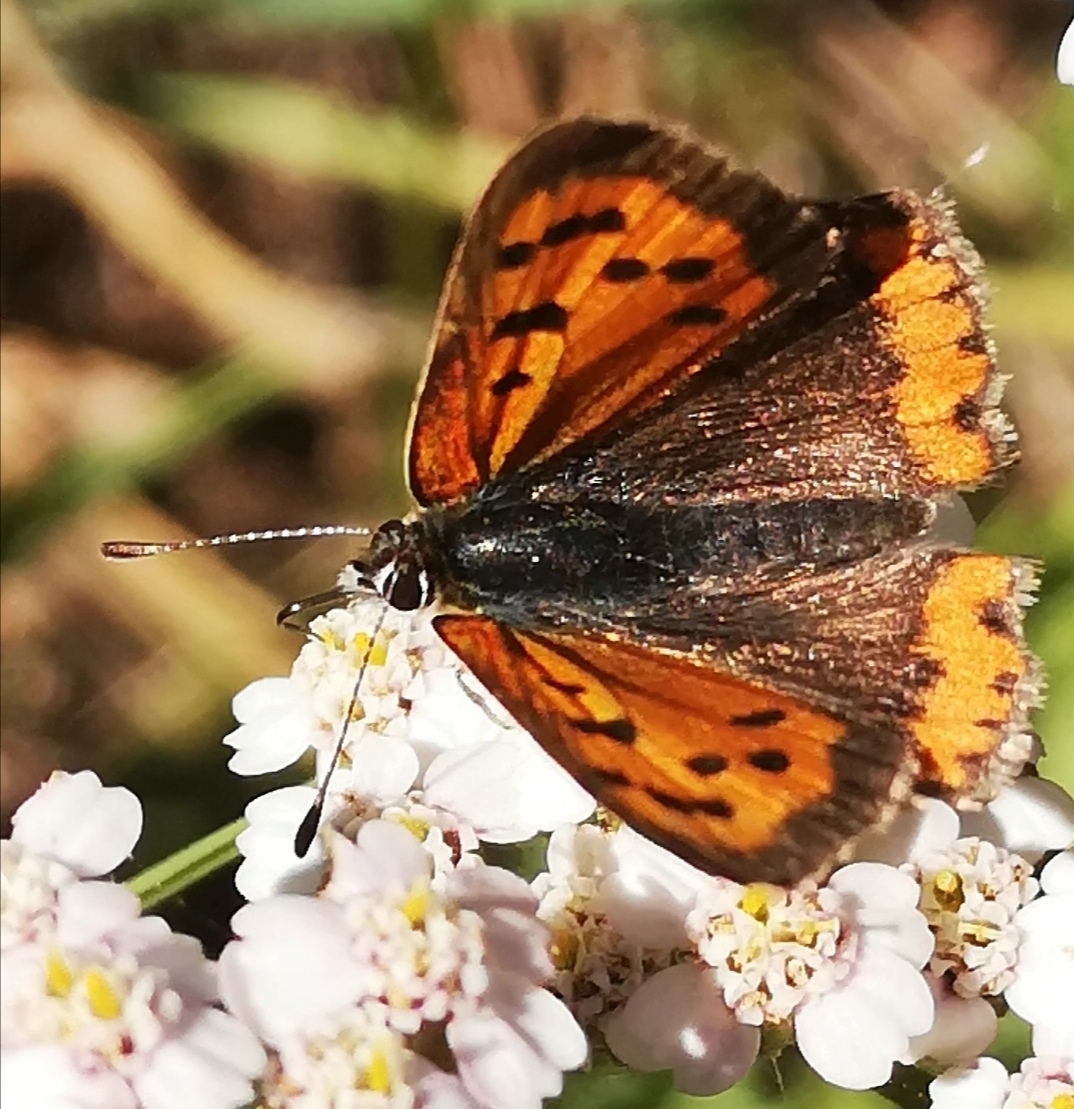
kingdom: Animalia
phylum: Arthropoda
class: Insecta
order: Lepidoptera
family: Lycaenidae
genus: Lycaena
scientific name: Lycaena phlaeas
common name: Small copper
